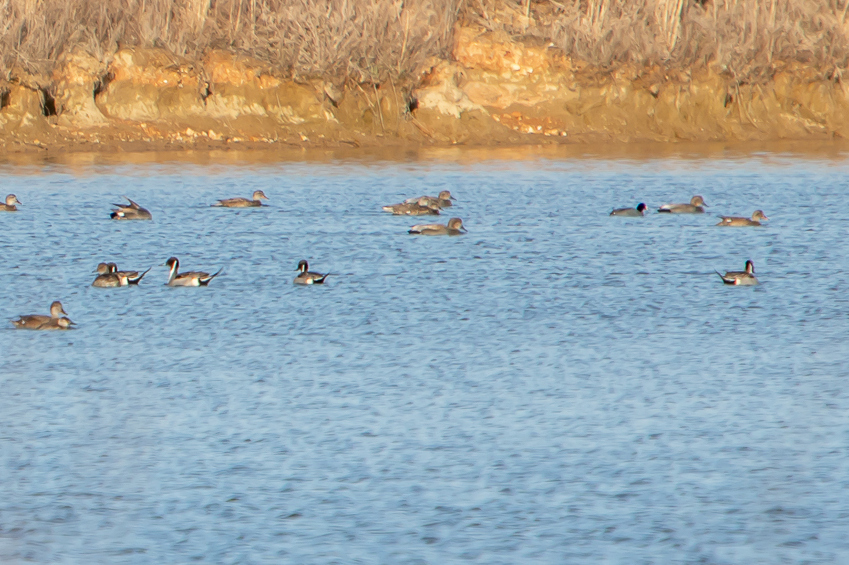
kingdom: Animalia
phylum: Chordata
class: Aves
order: Anseriformes
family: Anatidae
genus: Anas
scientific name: Anas acuta
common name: Northern pintail
